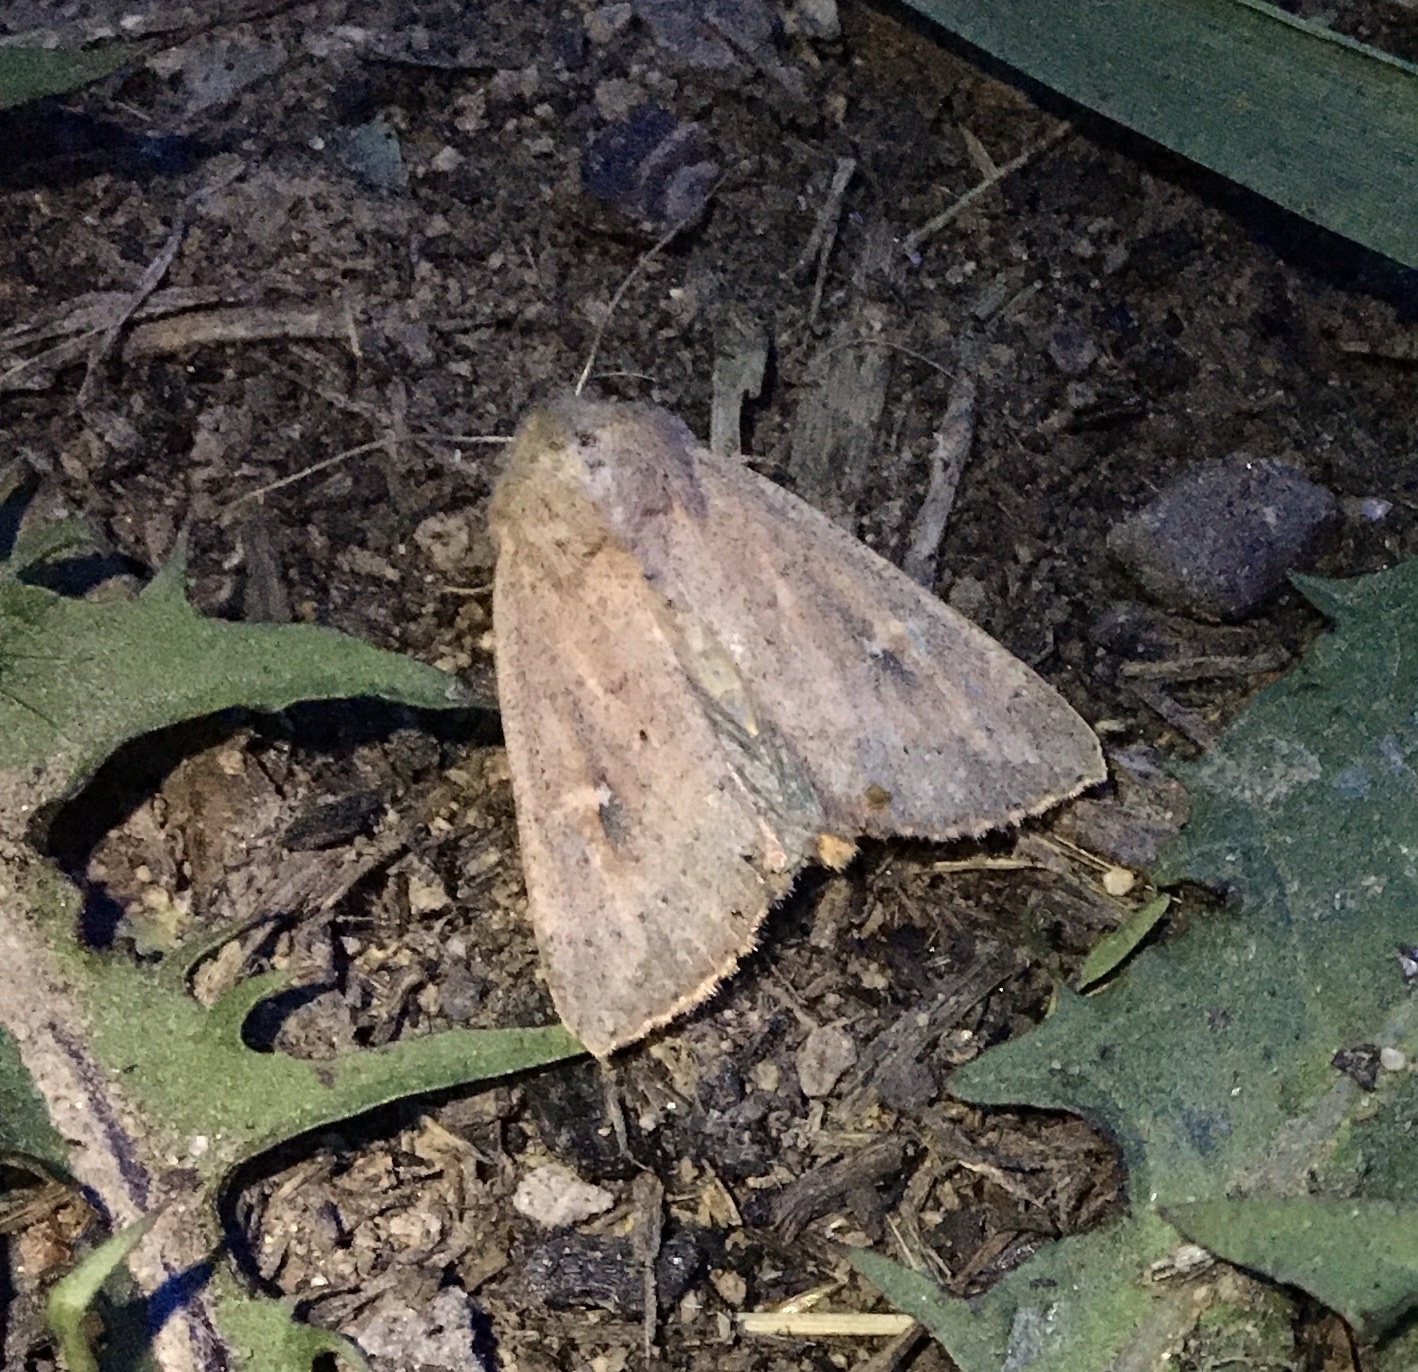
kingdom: Animalia
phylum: Arthropoda
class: Insecta
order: Lepidoptera
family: Noctuidae
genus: Mythimna
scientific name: Mythimna ferrago
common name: Clay
